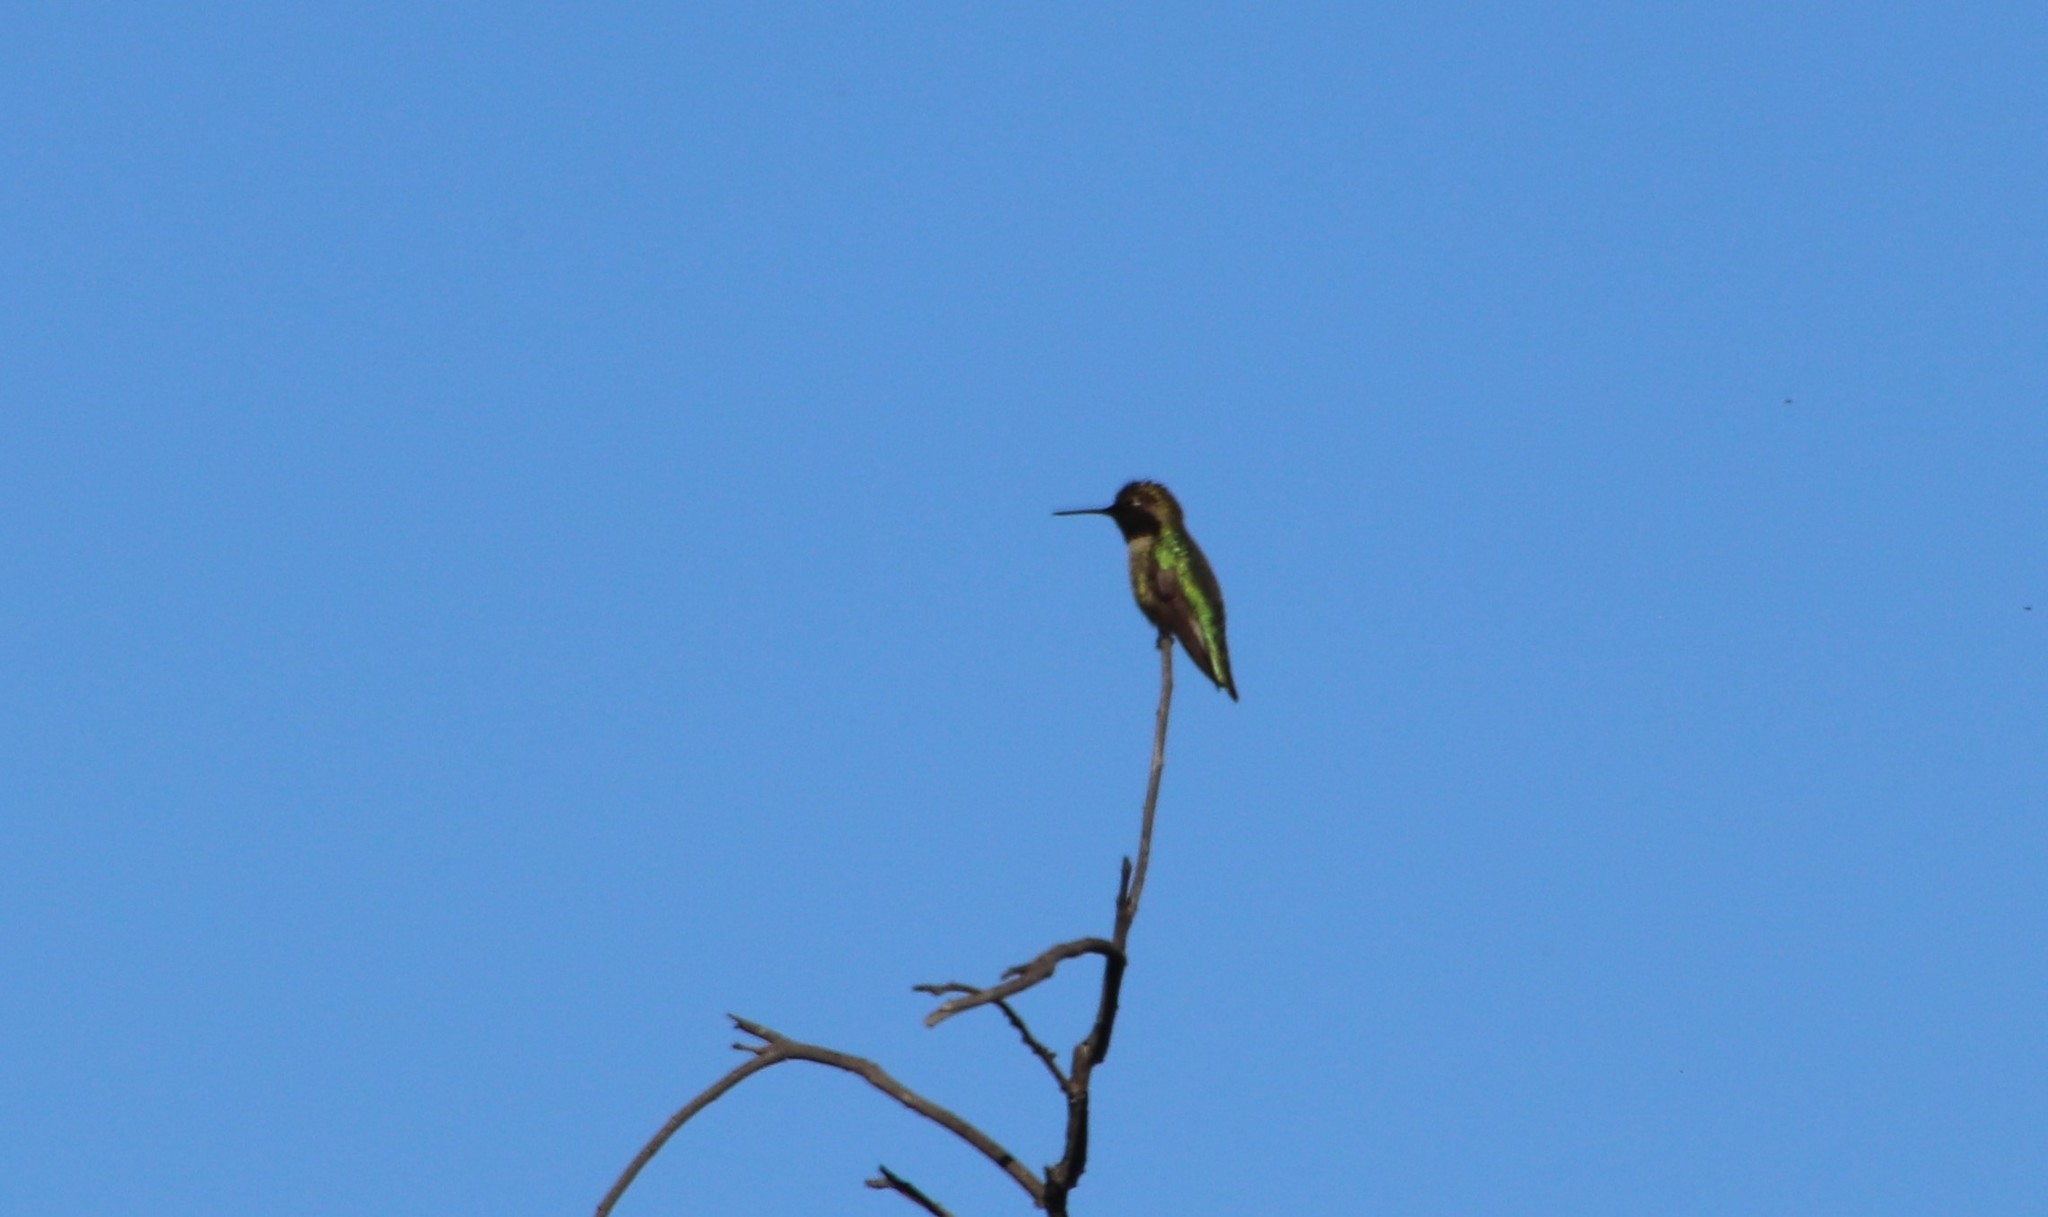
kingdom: Animalia
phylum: Chordata
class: Aves
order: Apodiformes
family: Trochilidae
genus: Calypte
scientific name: Calypte anna
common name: Anna's hummingbird
